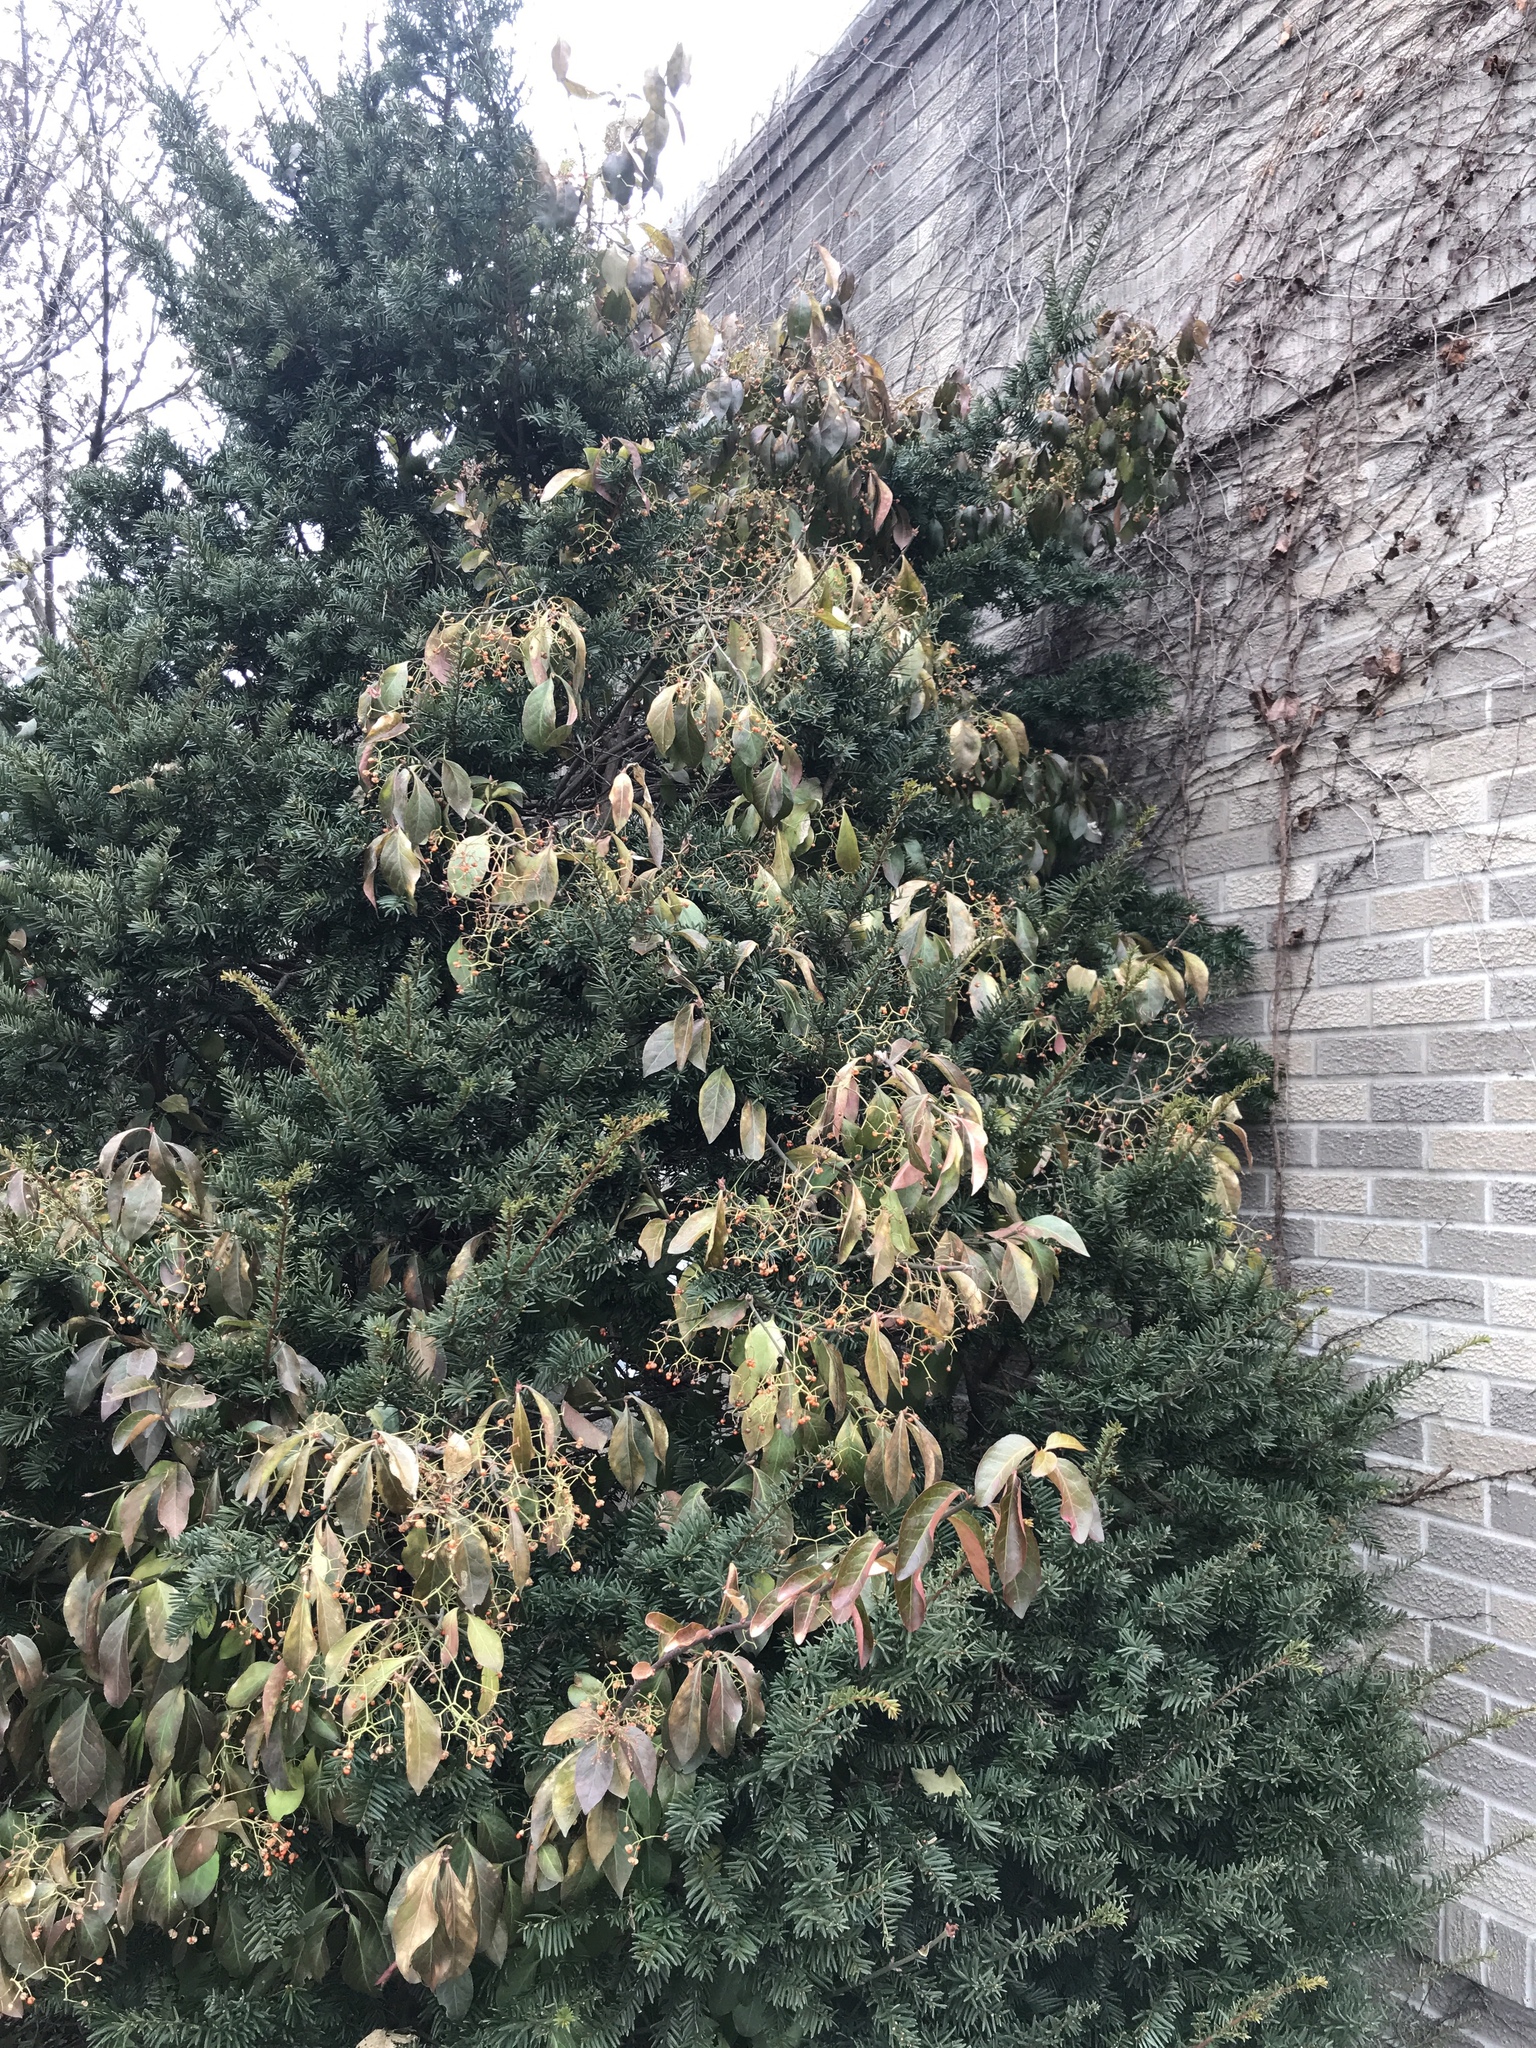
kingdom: Plantae
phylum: Tracheophyta
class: Magnoliopsida
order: Celastrales
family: Celastraceae
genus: Euonymus
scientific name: Euonymus fortunei
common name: Climbing euonymus
